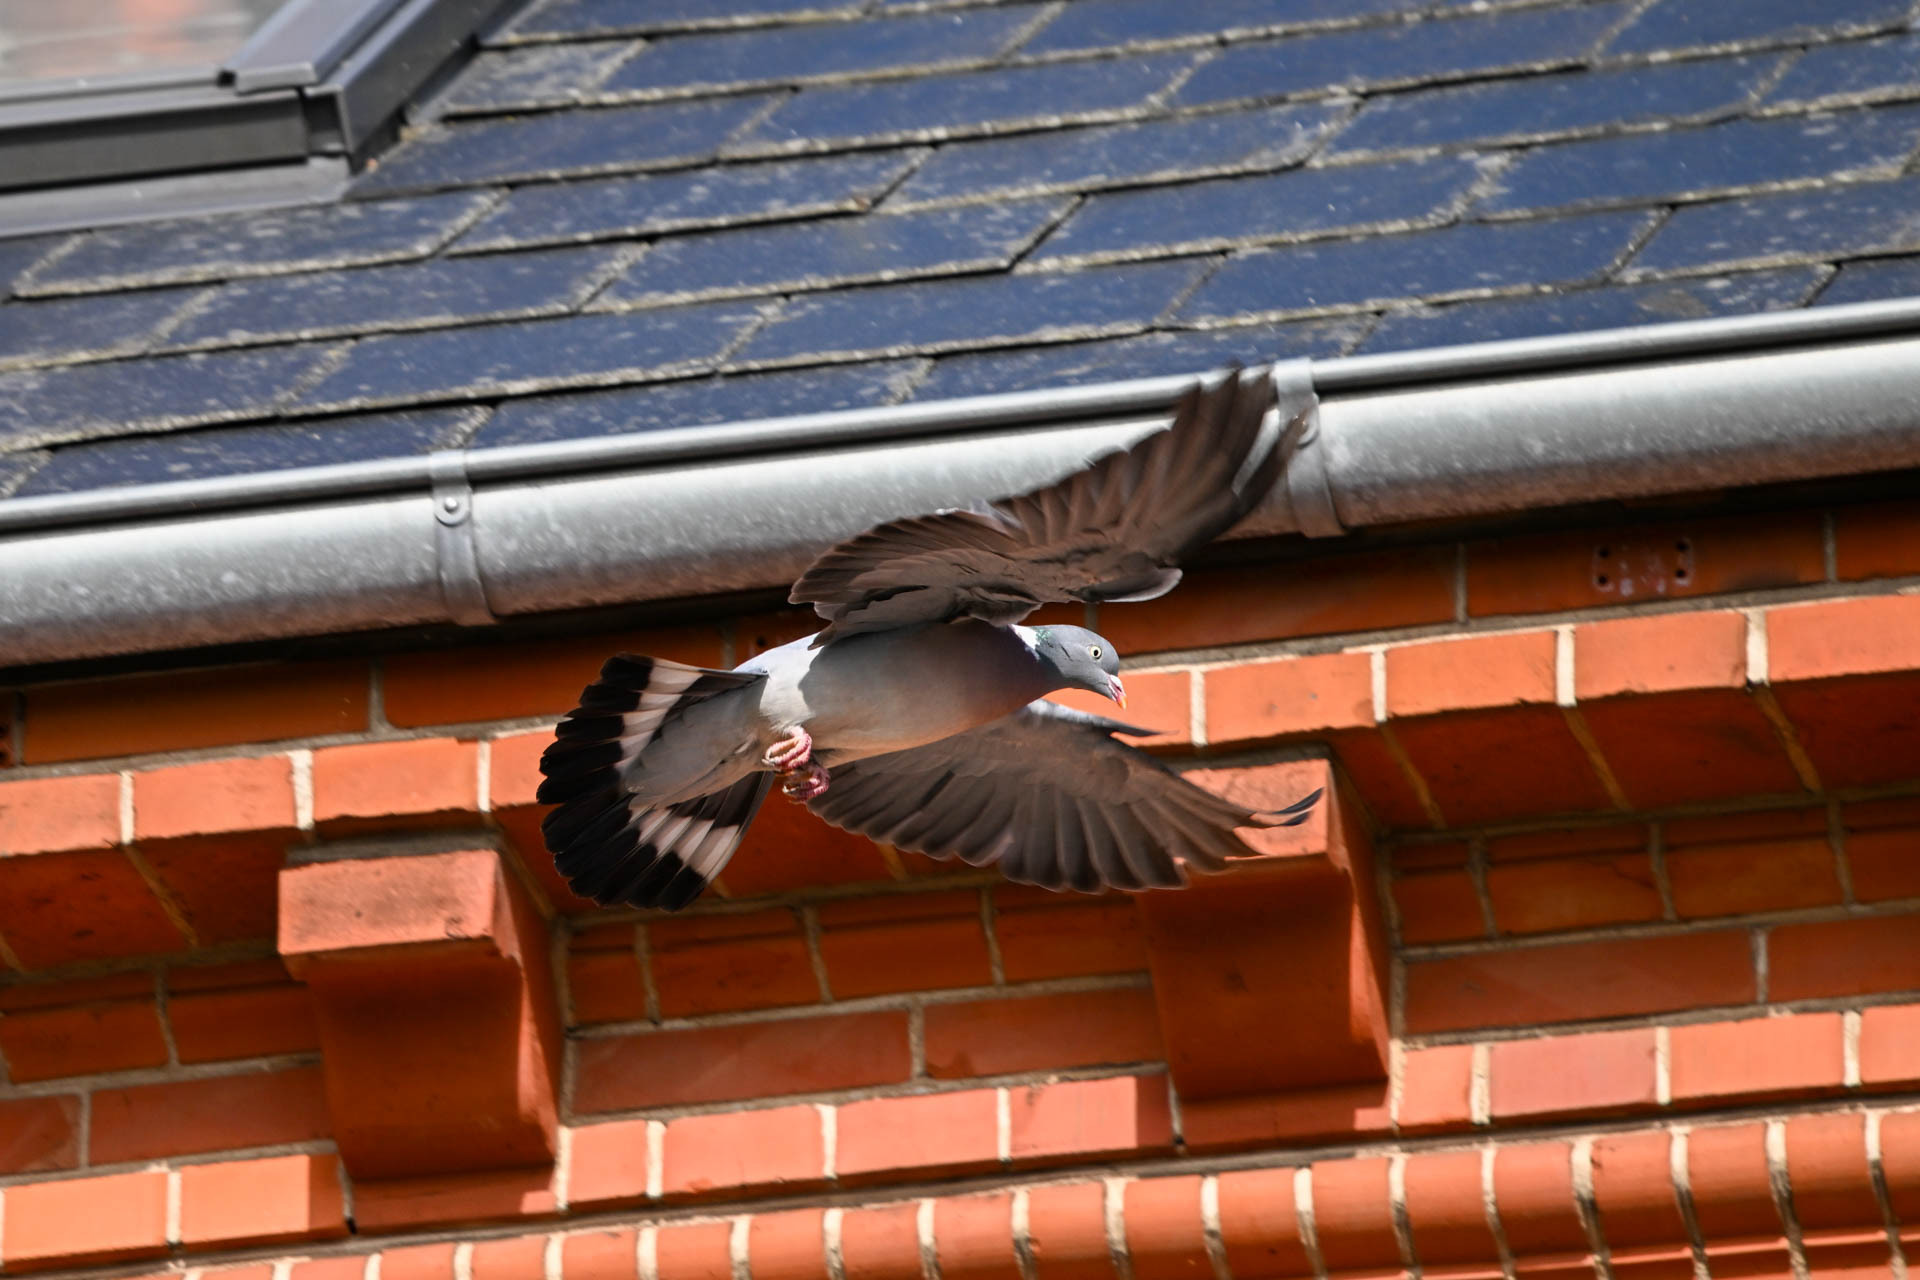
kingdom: Animalia
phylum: Chordata
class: Aves
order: Columbiformes
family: Columbidae
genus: Columba
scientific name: Columba palumbus
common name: Common wood pigeon
